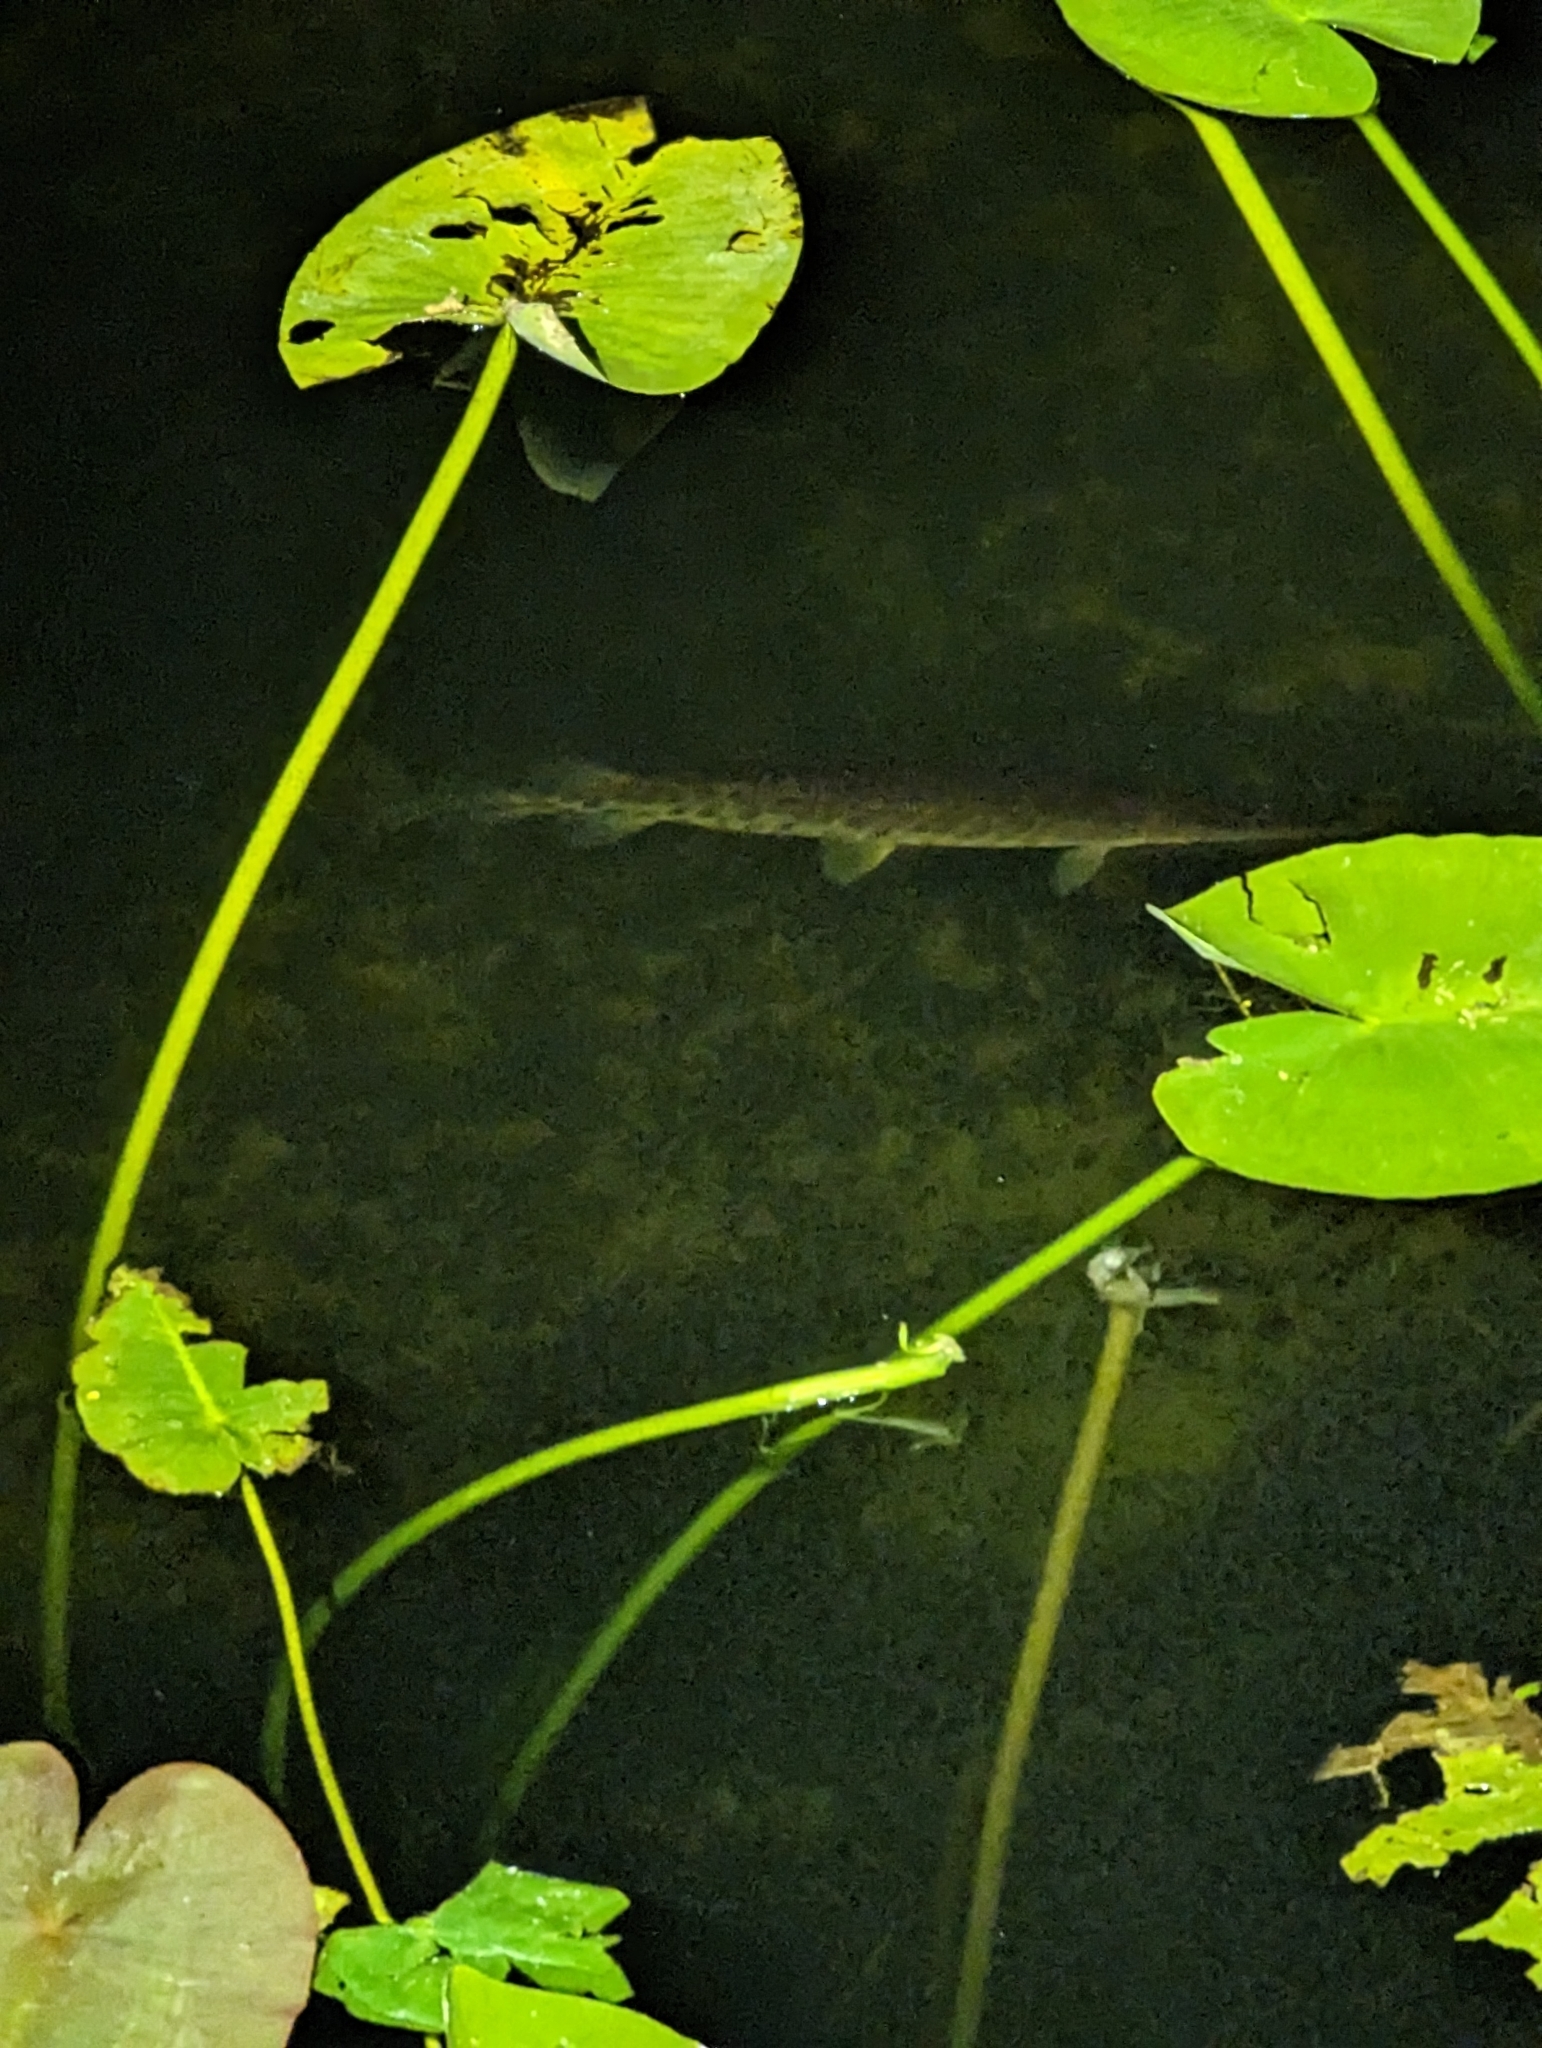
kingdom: Animalia
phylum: Chordata
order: Lepisosteiformes
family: Lepisosteidae
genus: Lepisosteus
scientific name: Lepisosteus platyrhincus
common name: Florida gar
